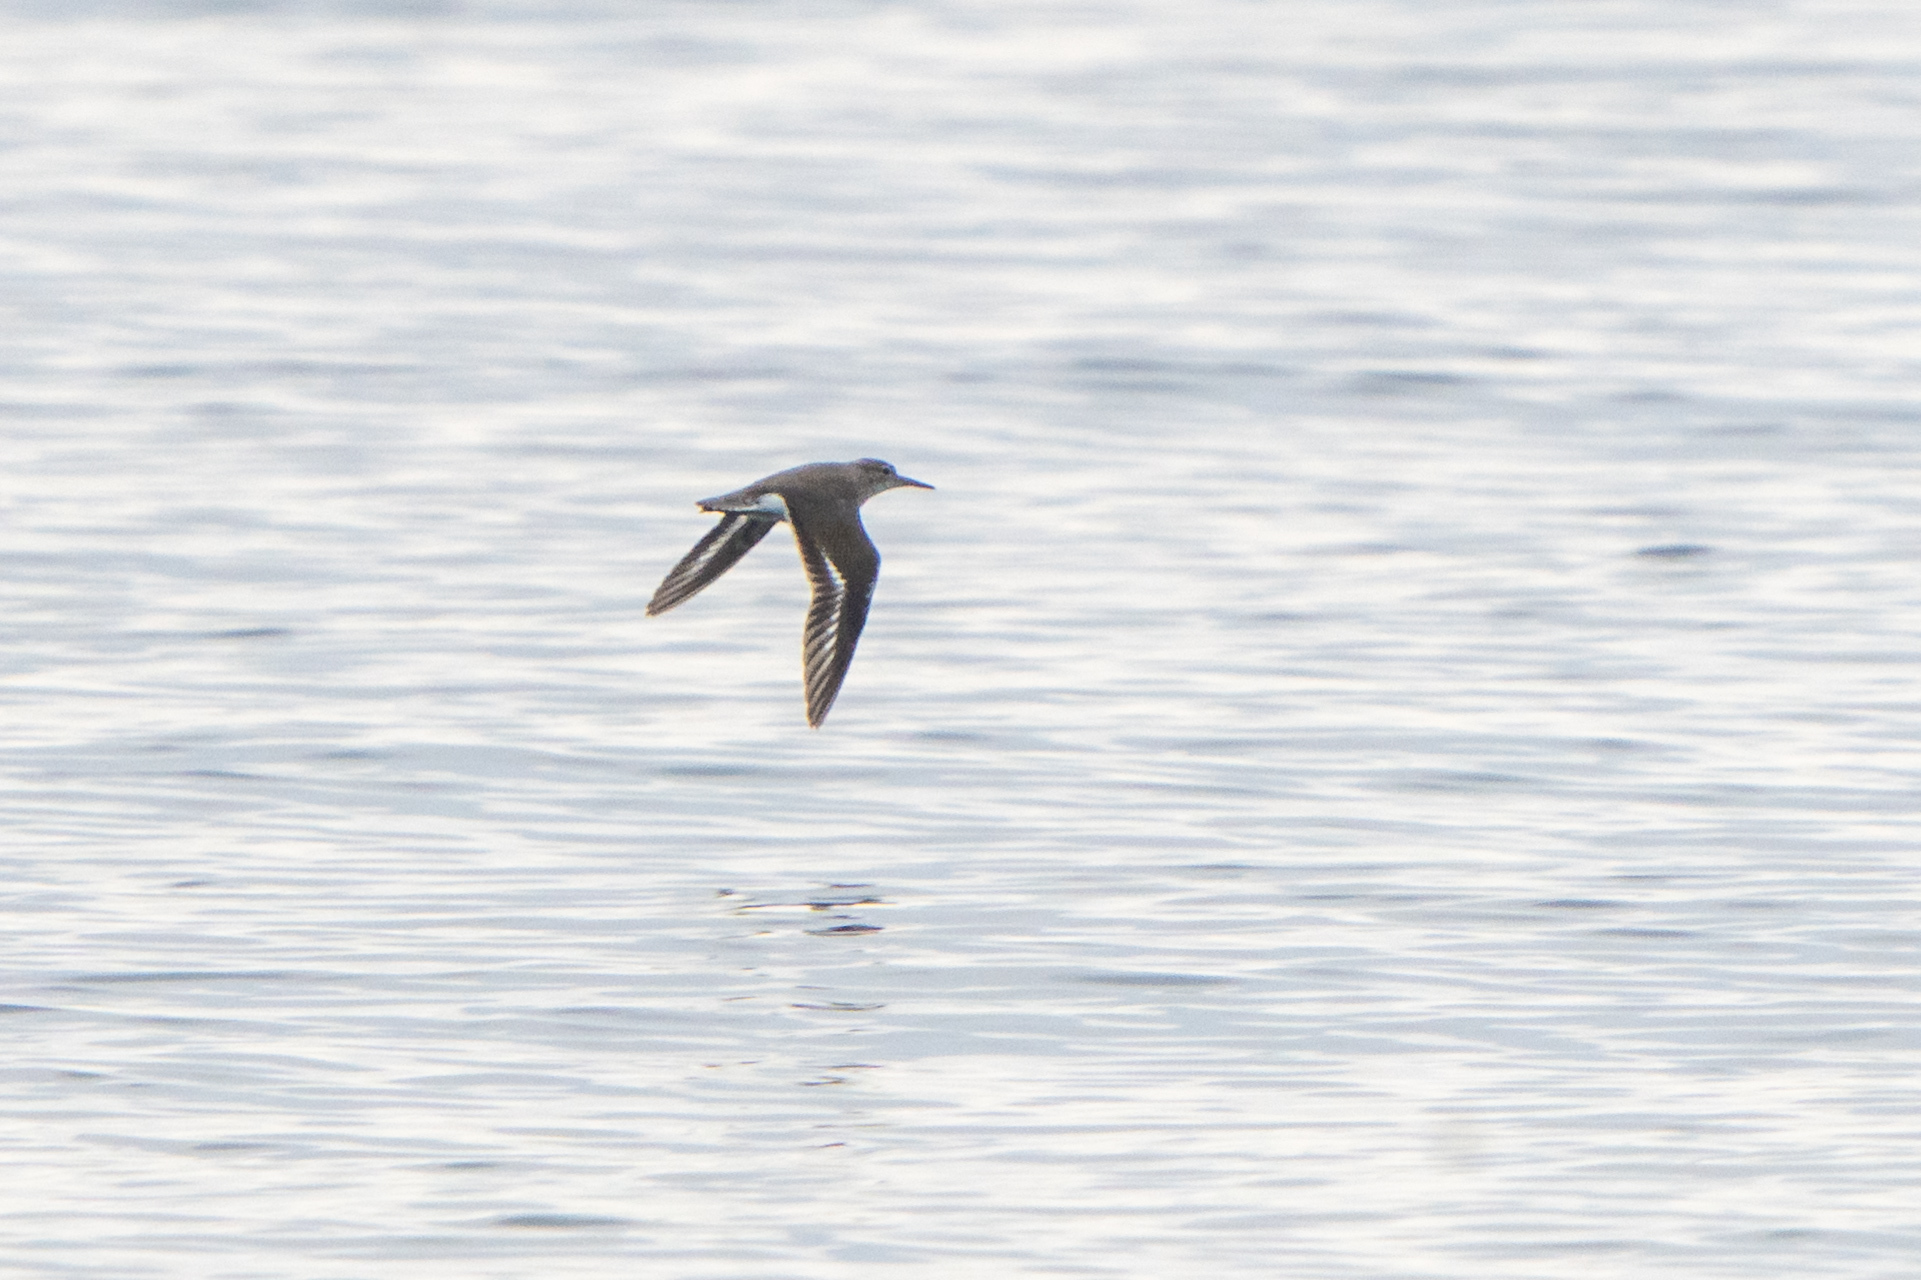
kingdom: Animalia
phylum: Chordata
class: Aves
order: Charadriiformes
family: Scolopacidae
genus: Actitis
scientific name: Actitis macularius
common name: Spotted sandpiper
